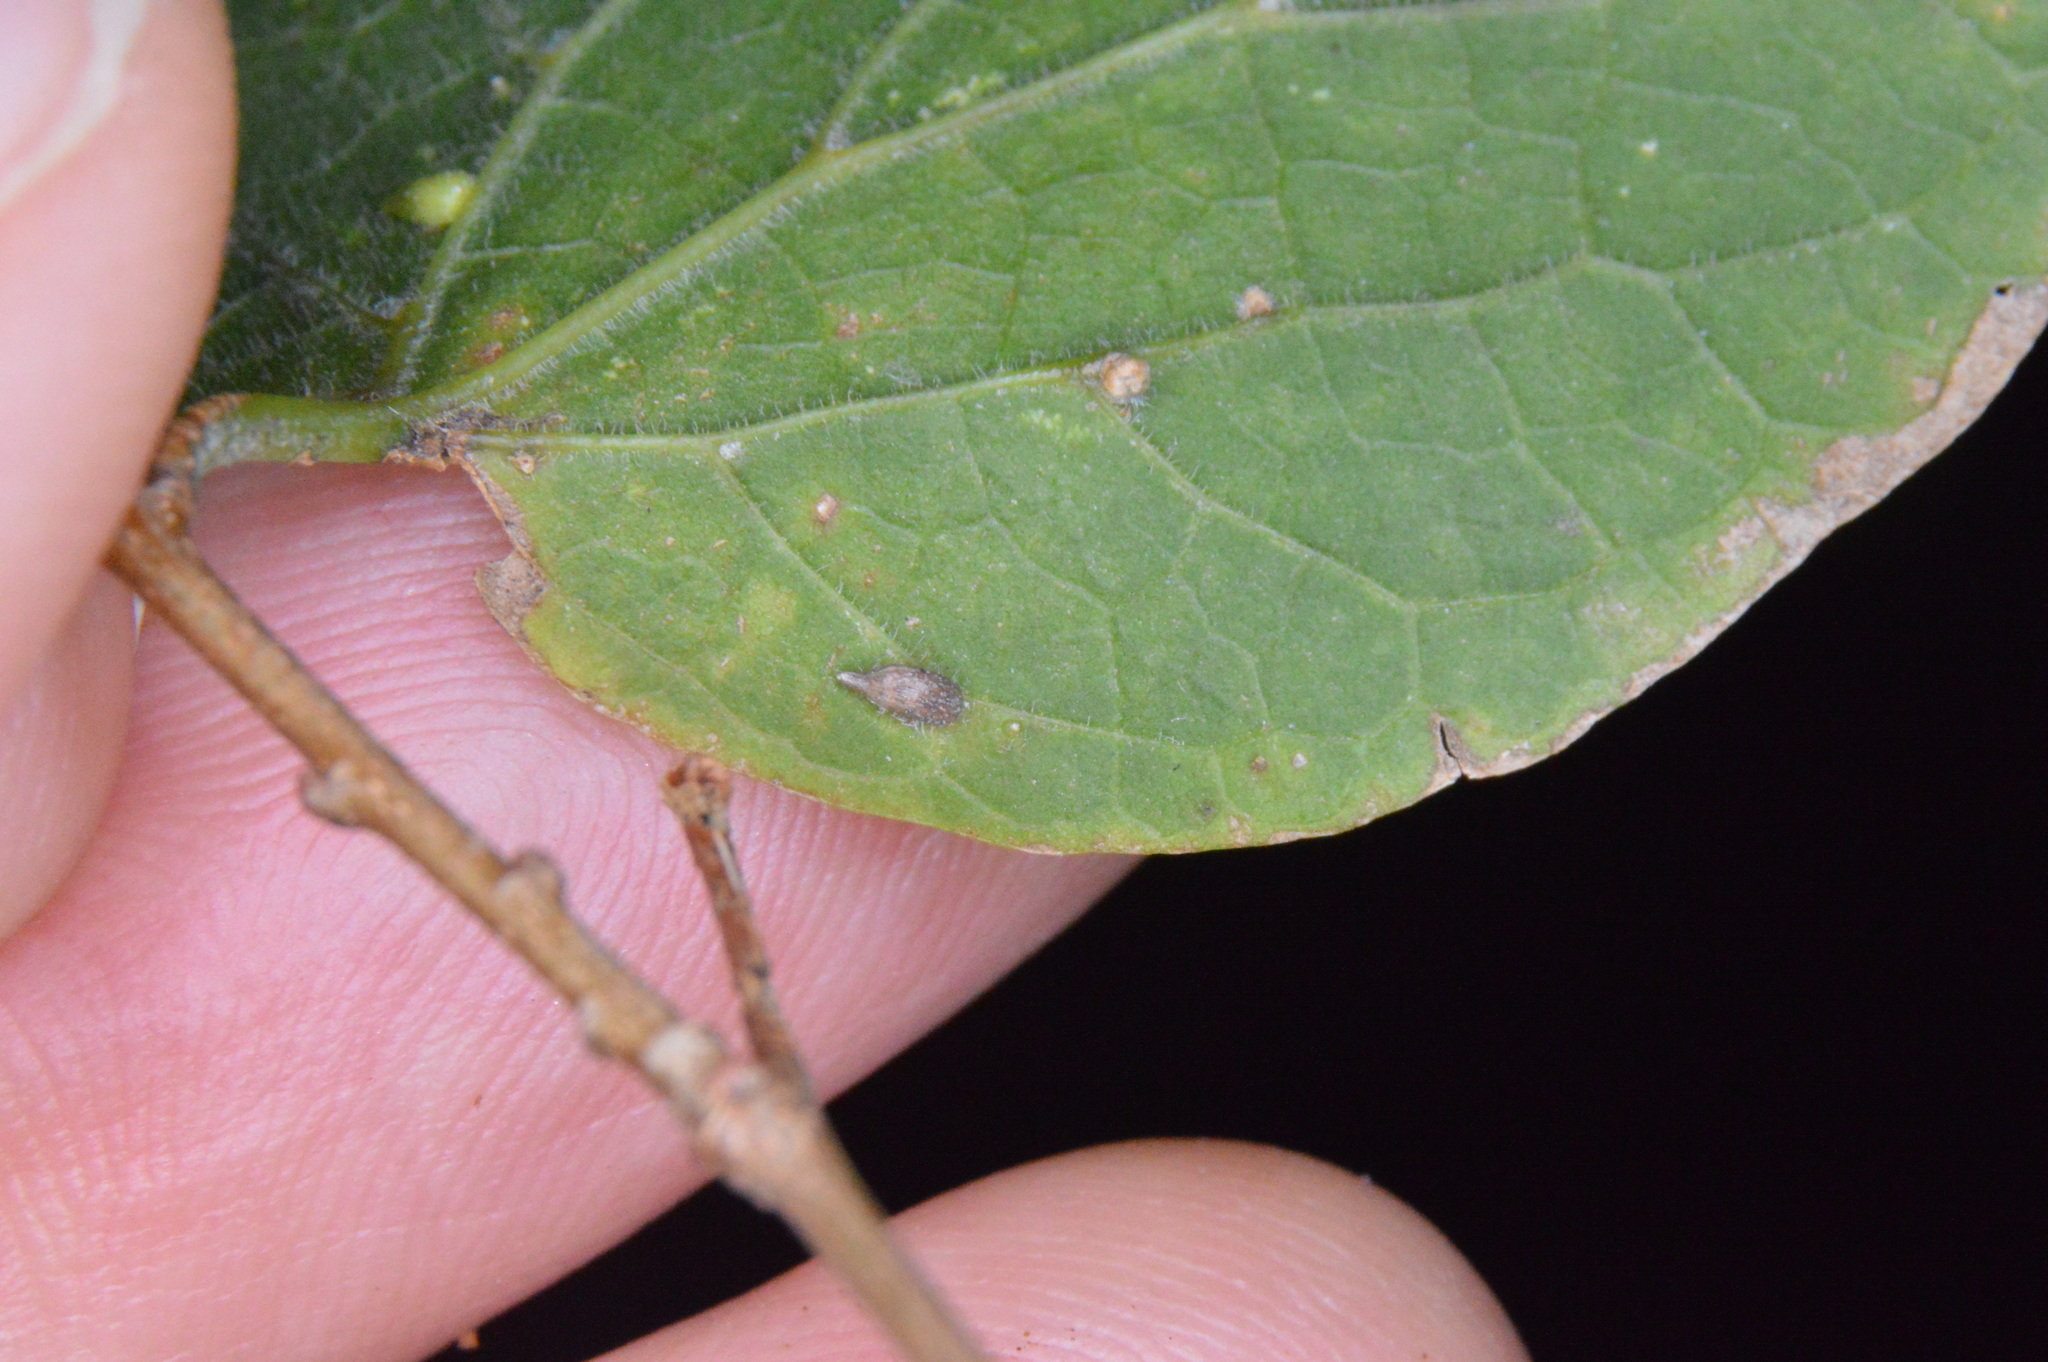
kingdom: Animalia
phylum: Arthropoda
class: Insecta
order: Diptera
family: Cecidomyiidae
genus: Celticecis
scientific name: Celticecis supina
